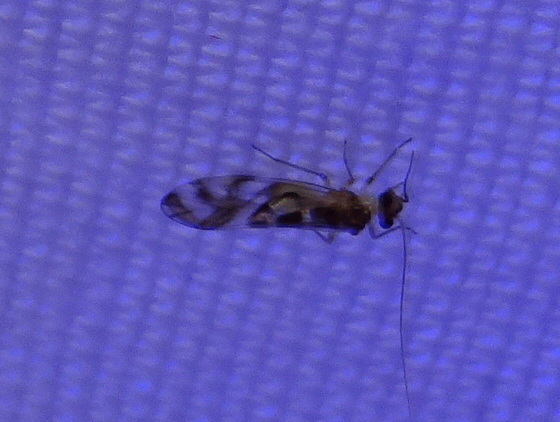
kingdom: Animalia
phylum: Arthropoda
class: Insecta
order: Psocodea
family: Stenopsocidae
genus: Graphopsocus
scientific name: Graphopsocus cruciatus
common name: Lizard bark louse
